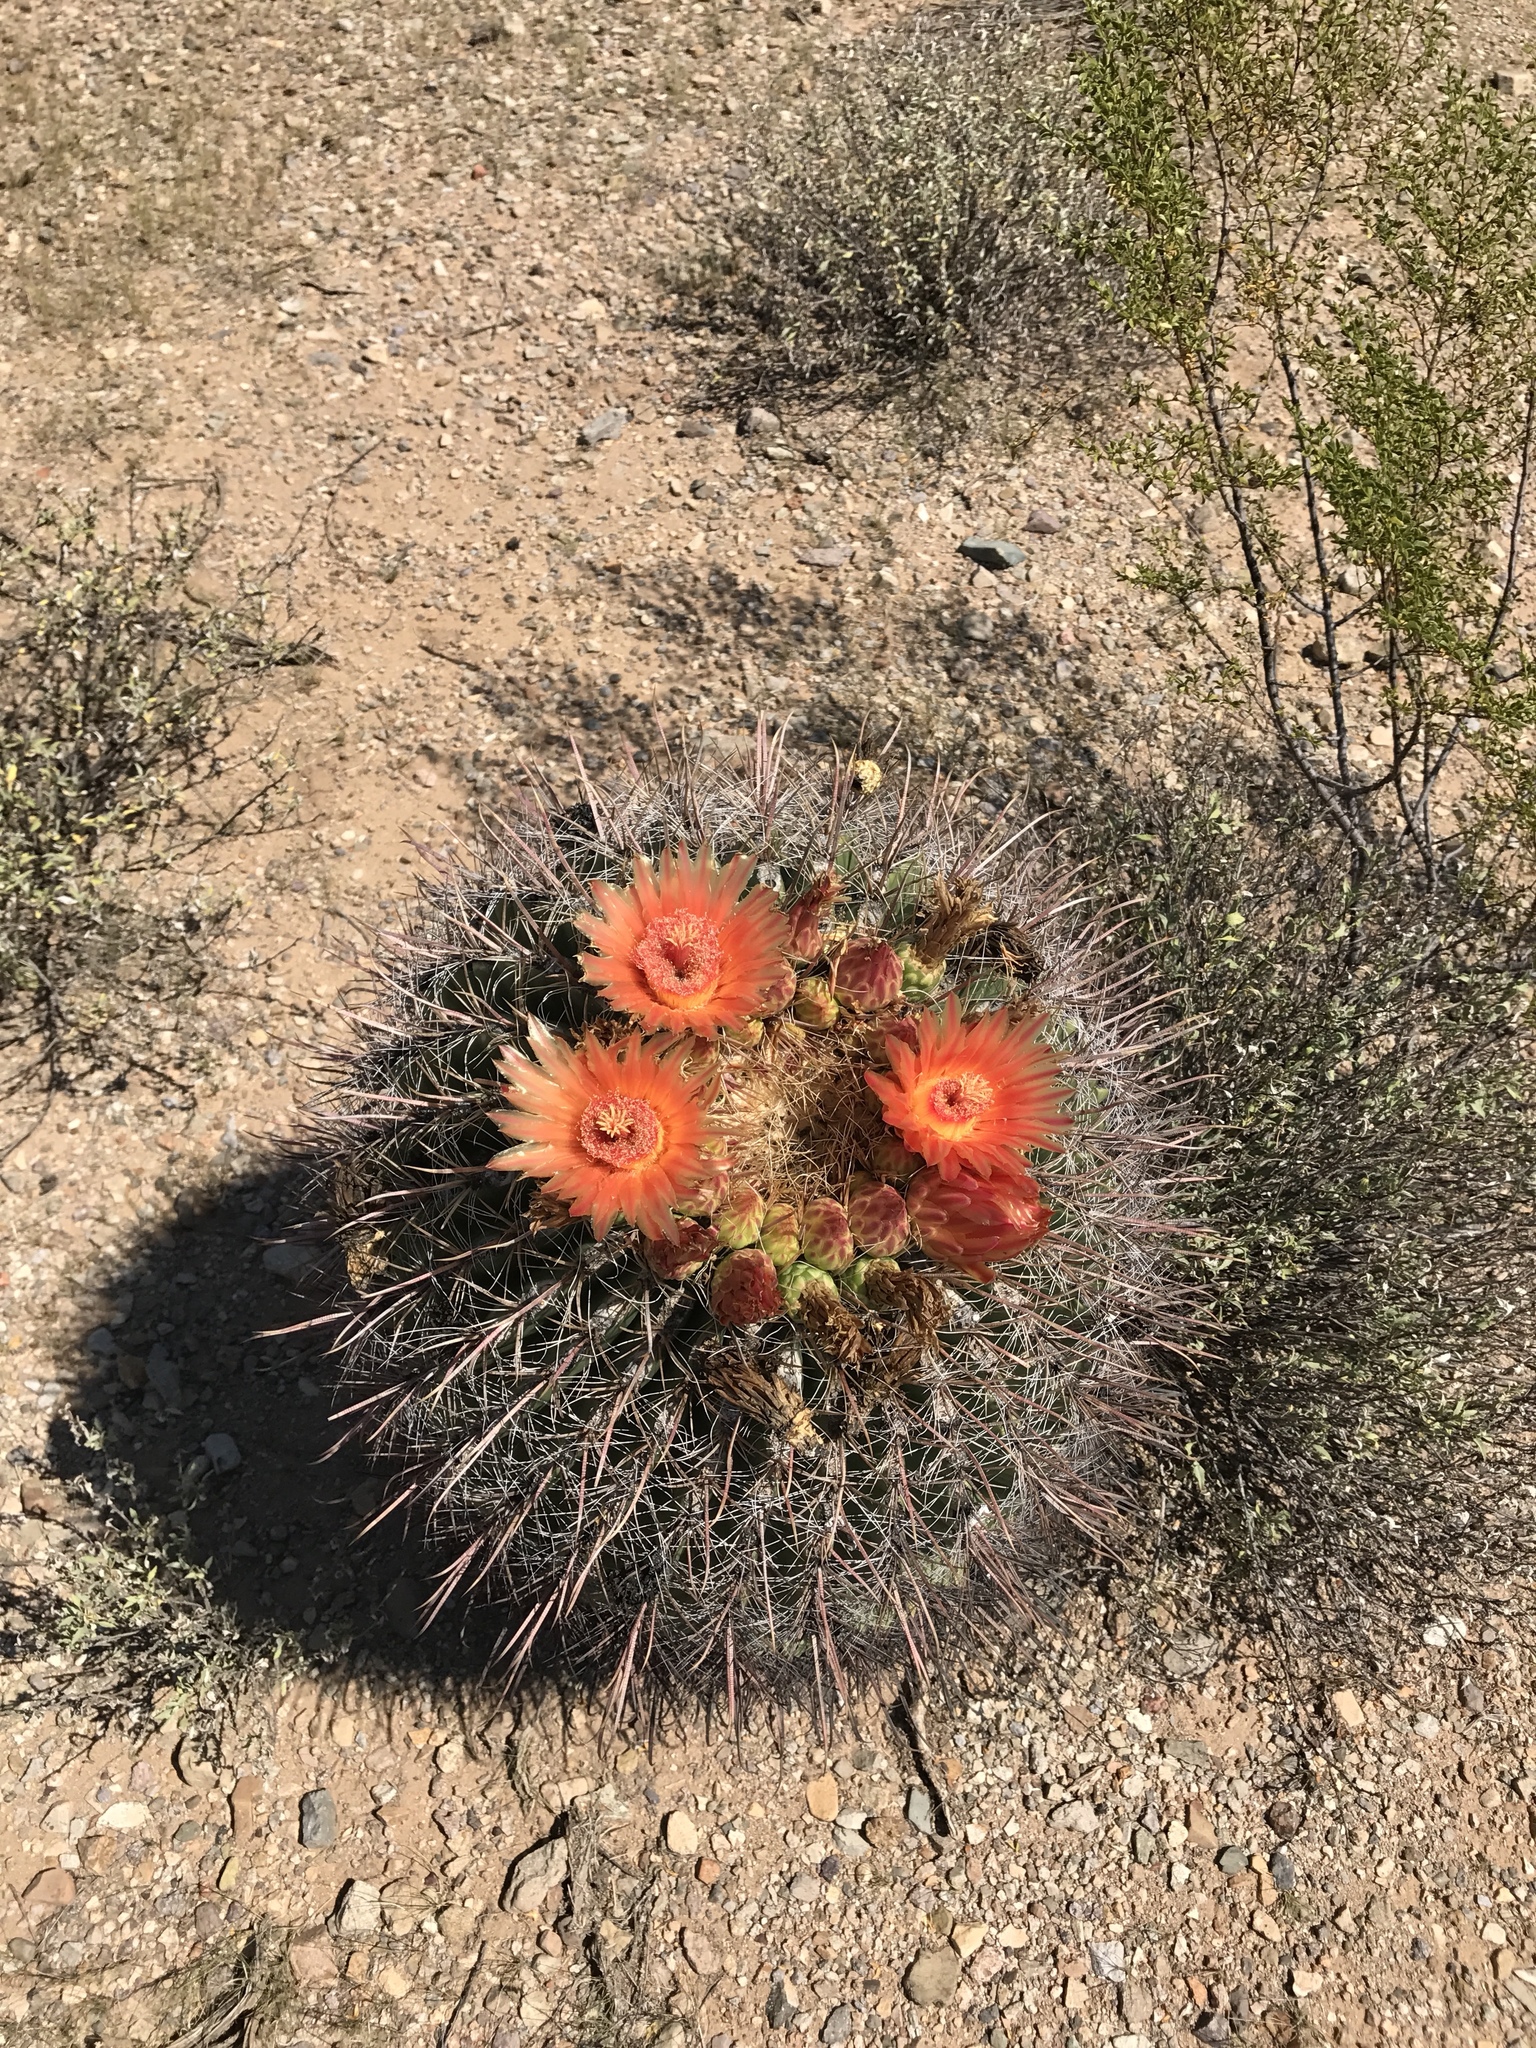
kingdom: Plantae
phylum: Tracheophyta
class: Magnoliopsida
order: Caryophyllales
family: Cactaceae
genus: Ferocactus
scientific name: Ferocactus wislizeni
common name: Candy barrel cactus
